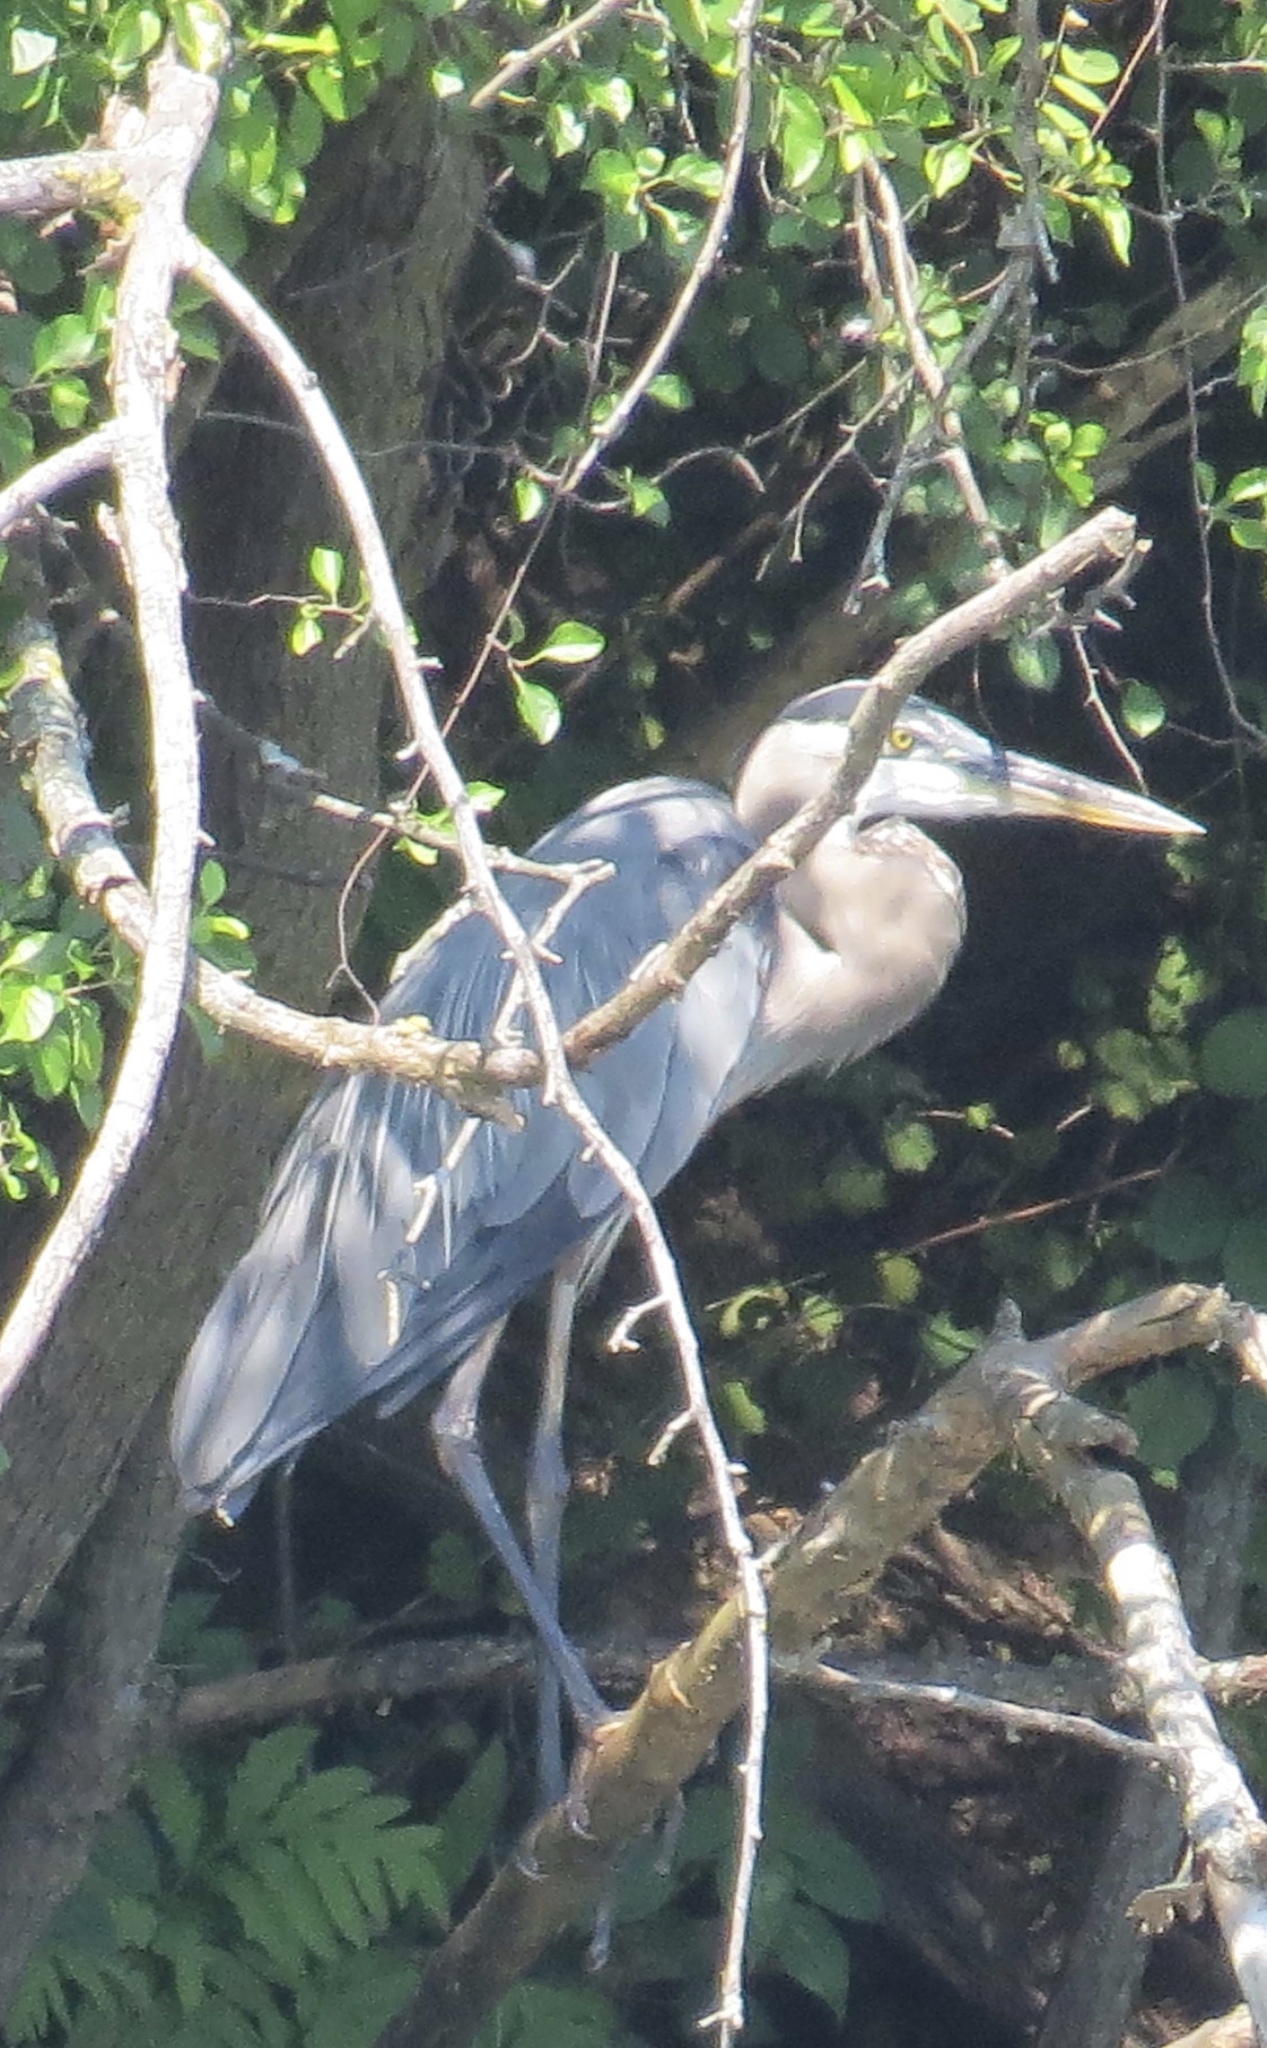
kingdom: Animalia
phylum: Chordata
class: Aves
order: Pelecaniformes
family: Ardeidae
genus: Ardea
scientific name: Ardea herodias
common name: Great blue heron
